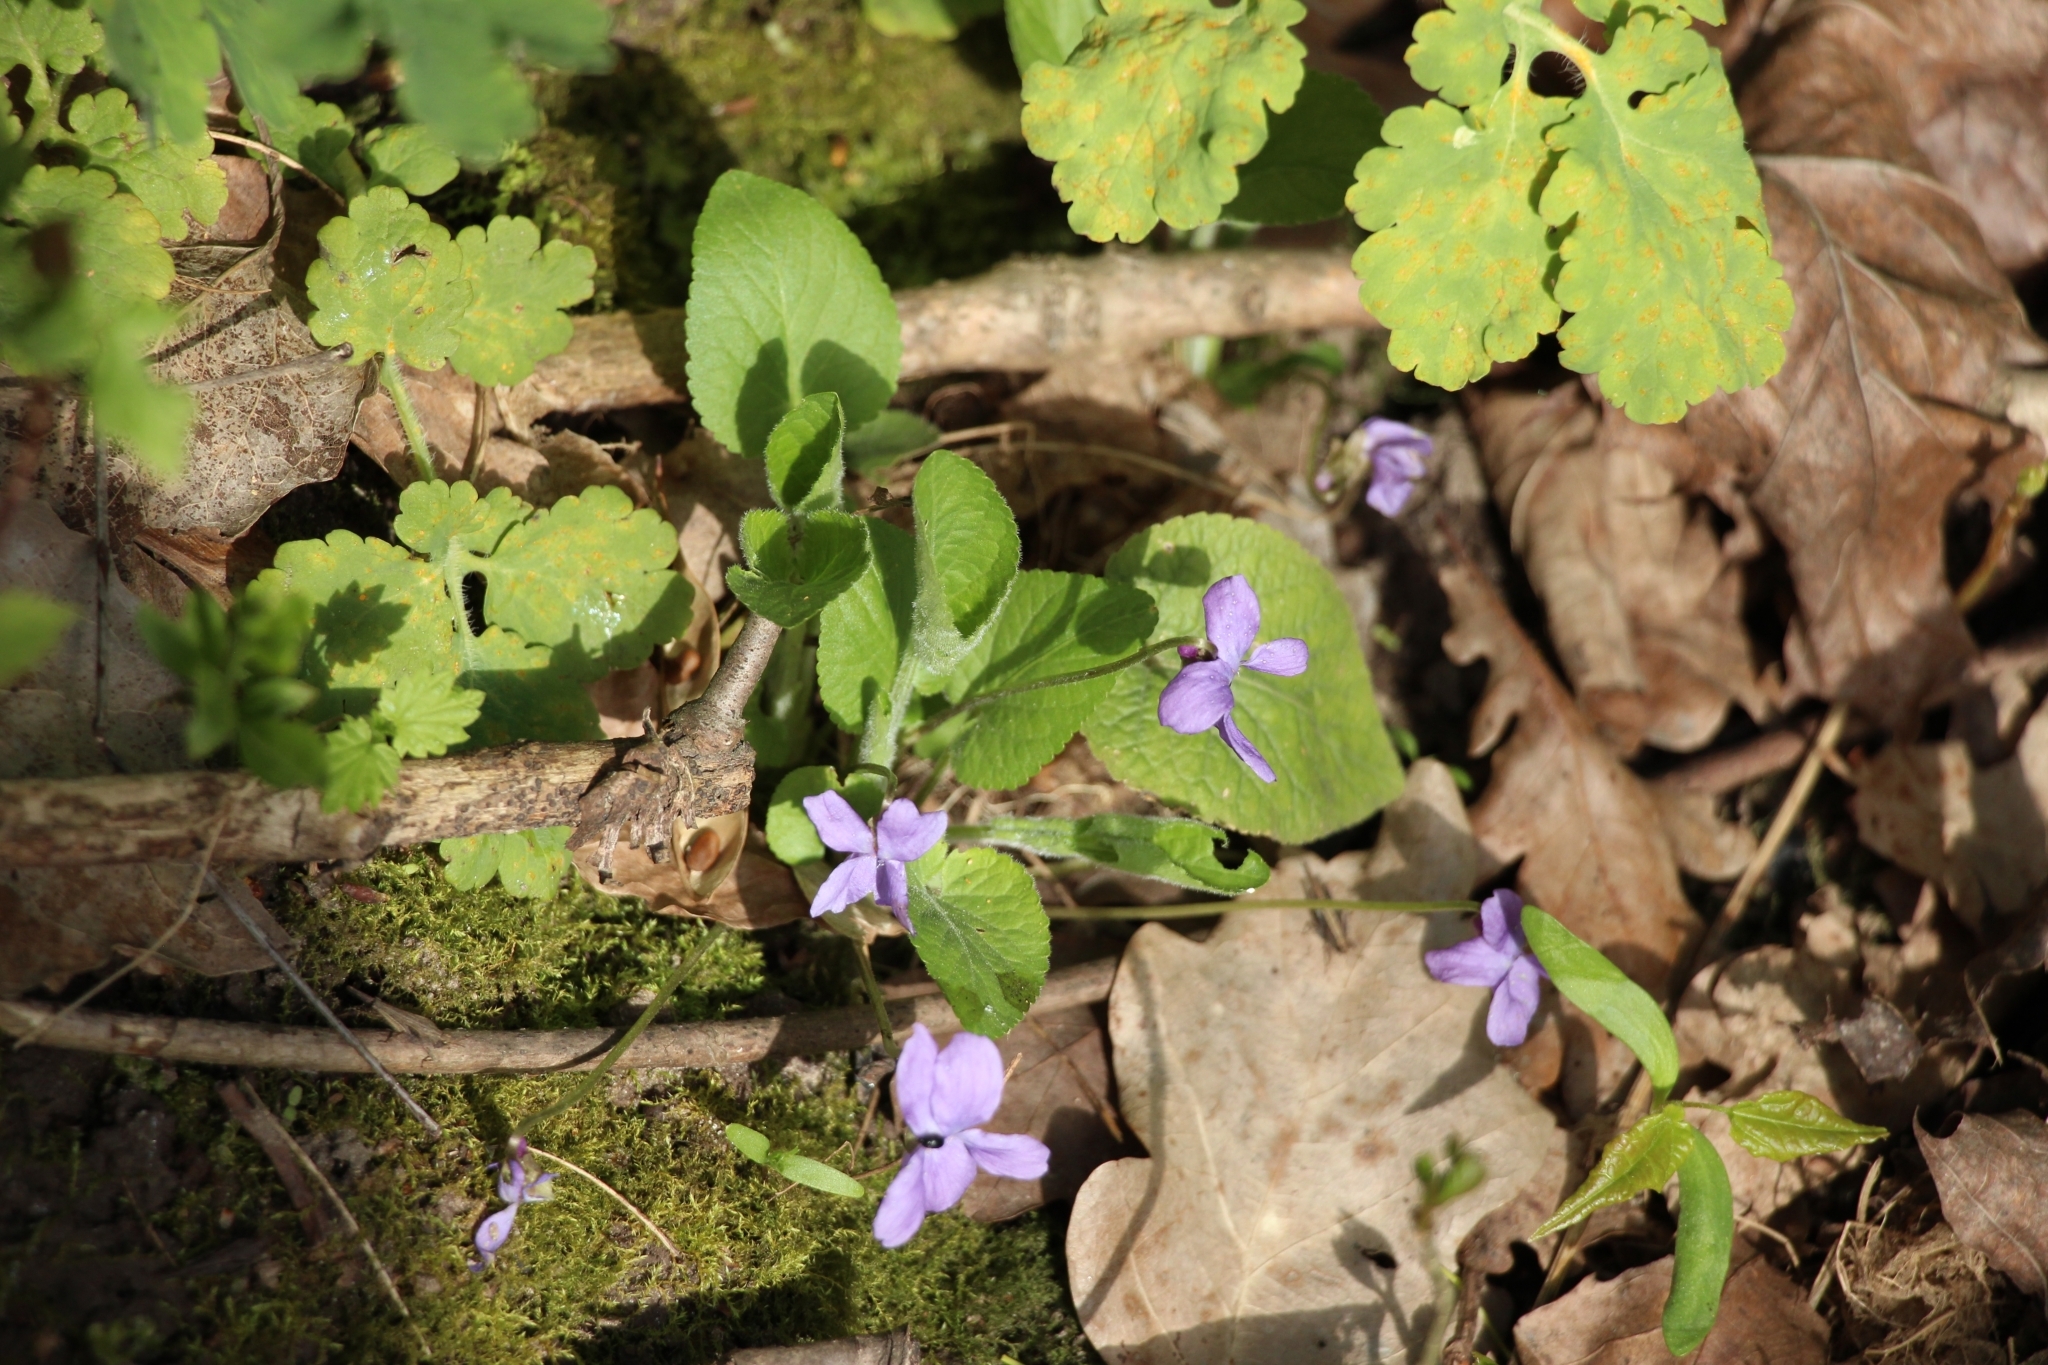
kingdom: Plantae
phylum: Tracheophyta
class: Magnoliopsida
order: Malpighiales
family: Violaceae
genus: Viola
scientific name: Viola hirta
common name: Hairy violet
